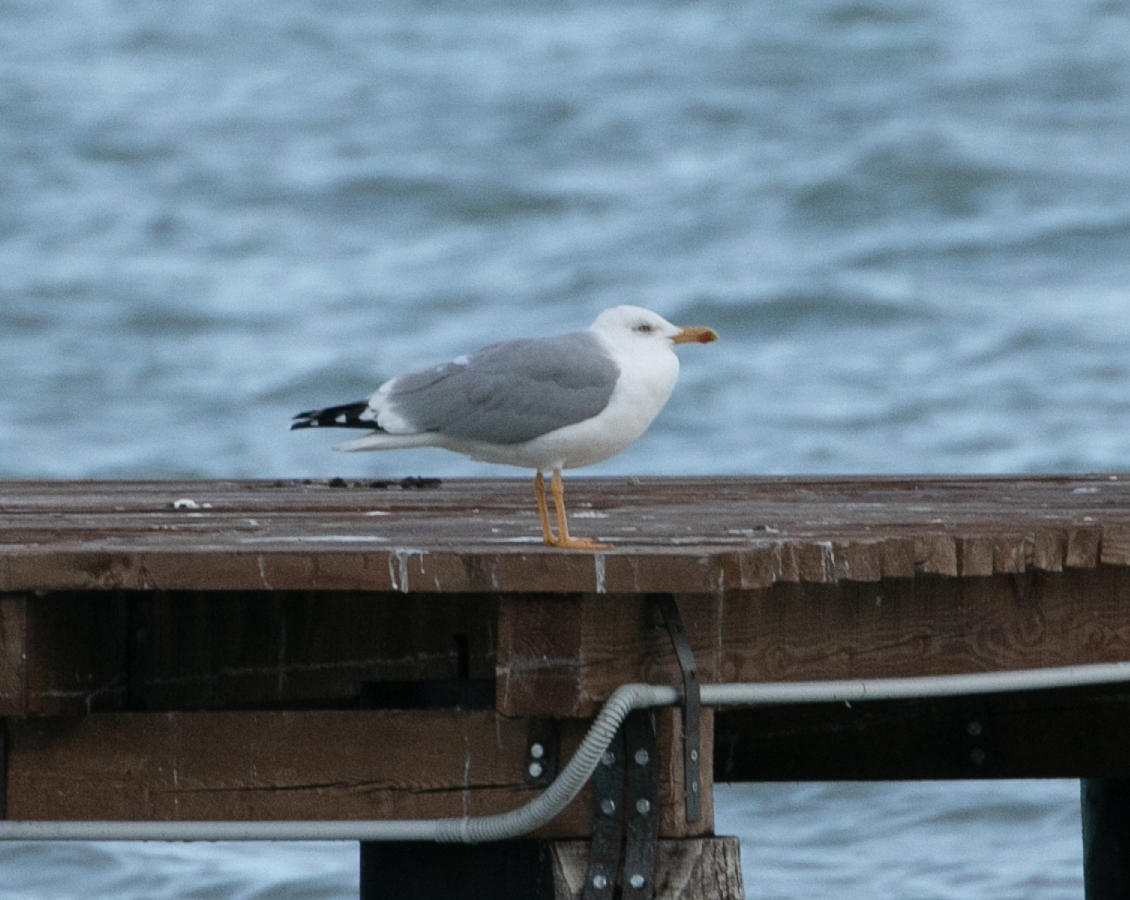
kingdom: Animalia
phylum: Chordata
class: Aves
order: Charadriiformes
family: Laridae
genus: Larus
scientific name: Larus michahellis
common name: Yellow-legged gull
